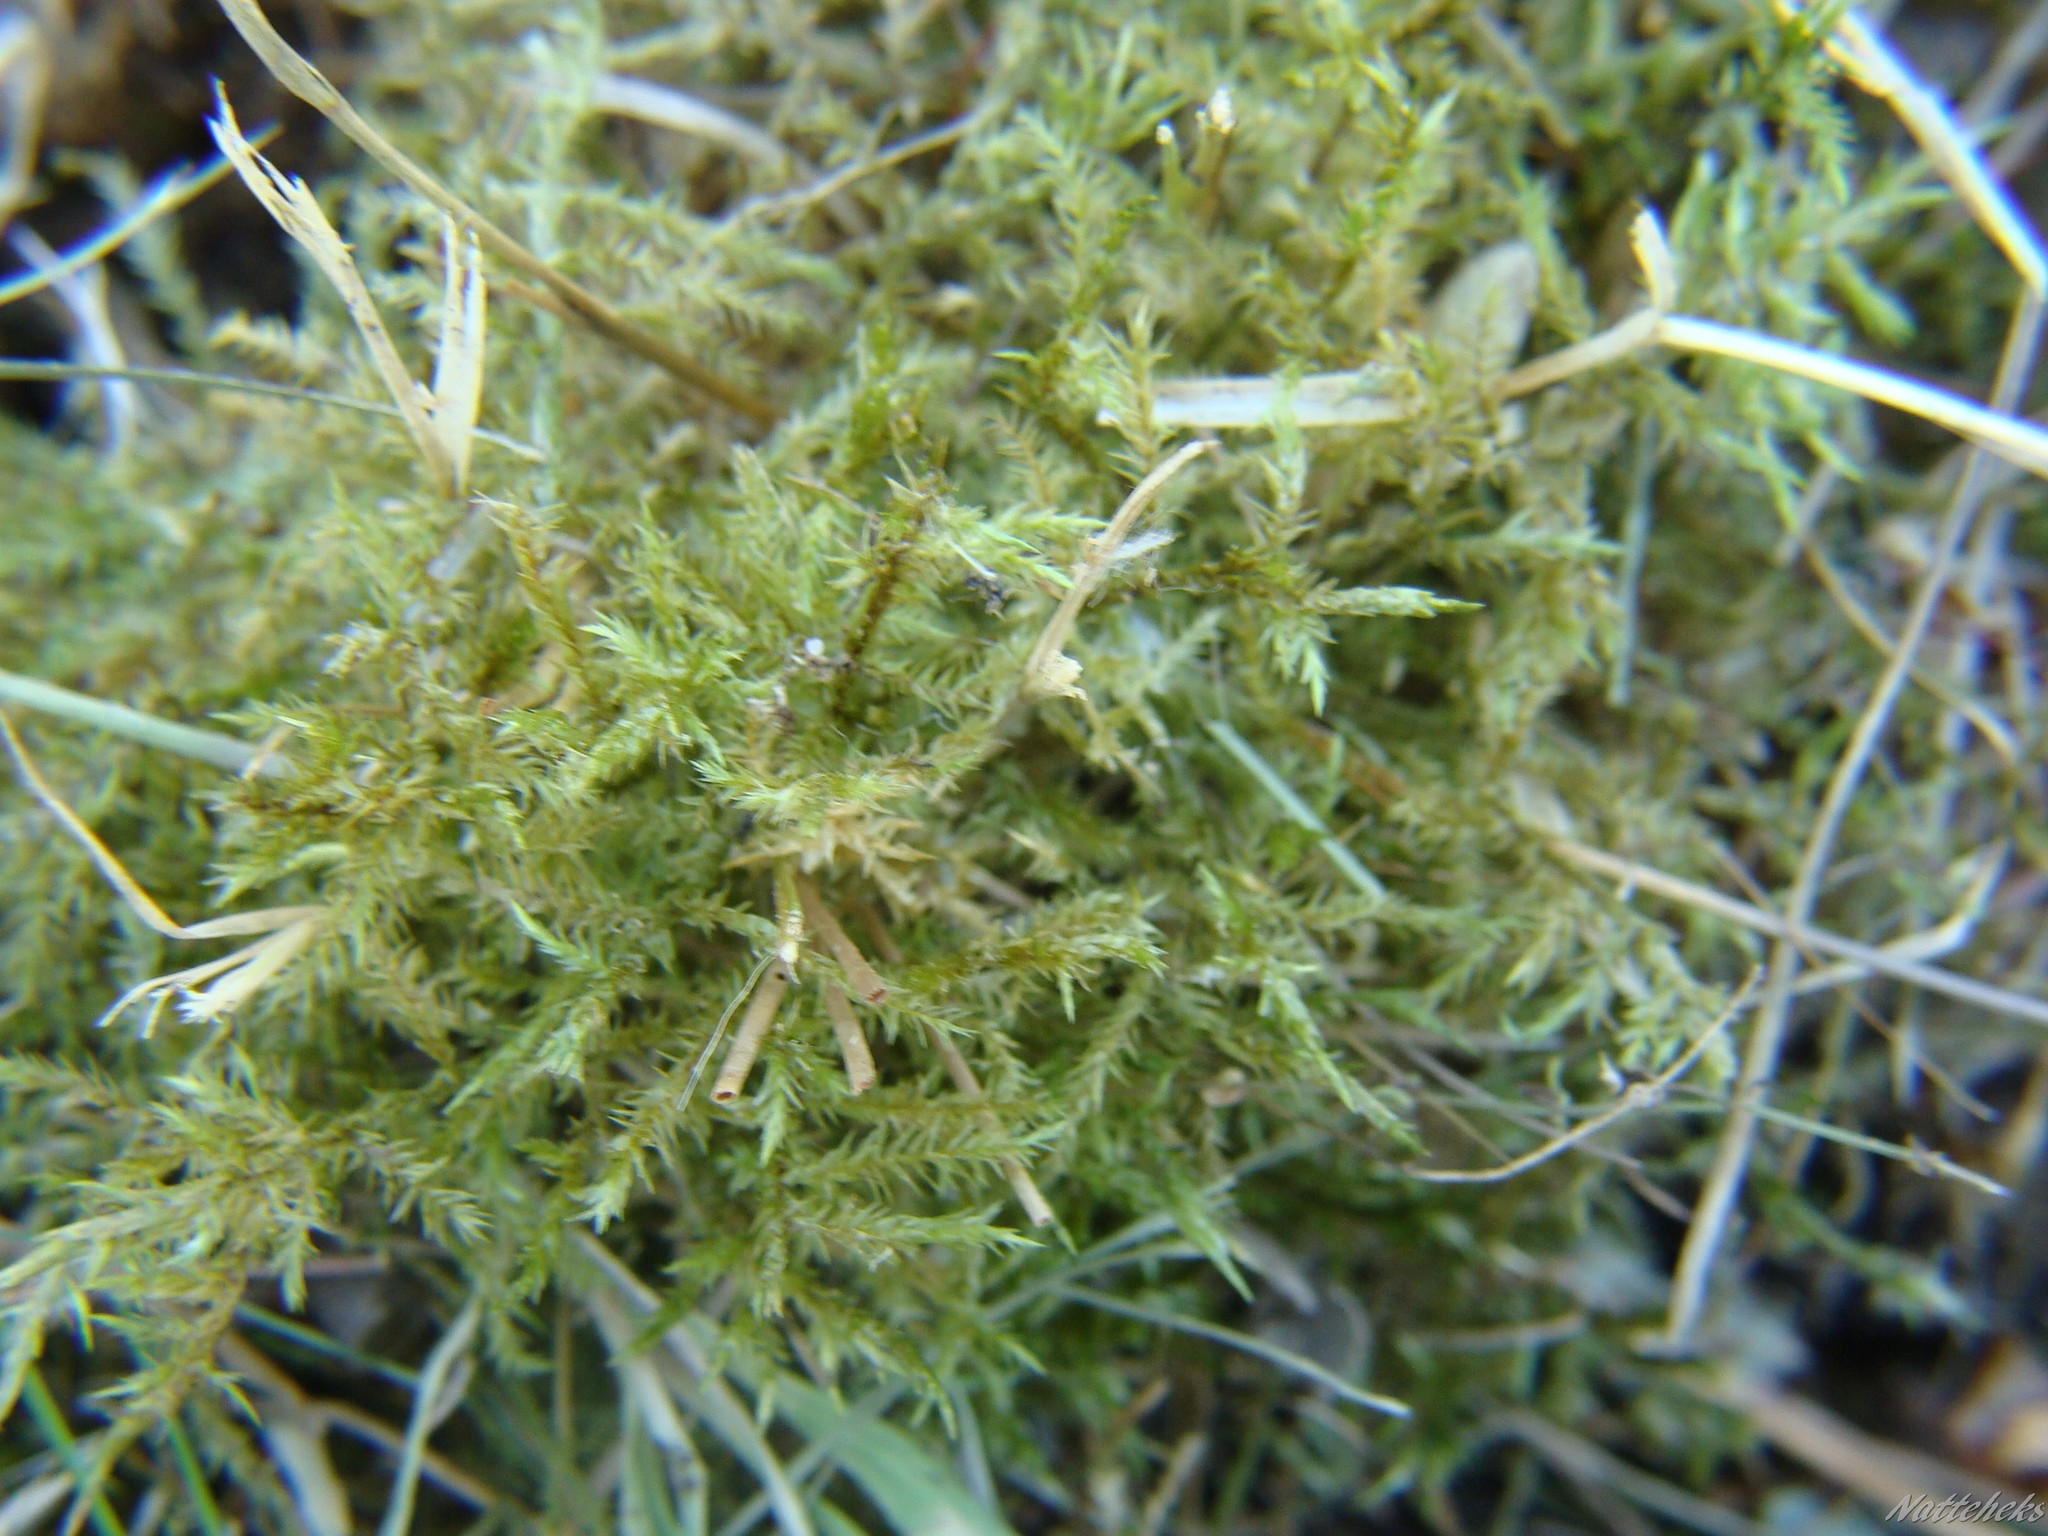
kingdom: Plantae
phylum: Bryophyta
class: Bryopsida
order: Hypnales
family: Pylaisiaceae
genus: Calliergonella
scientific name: Calliergonella cuspidata
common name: Common large wetland moss
